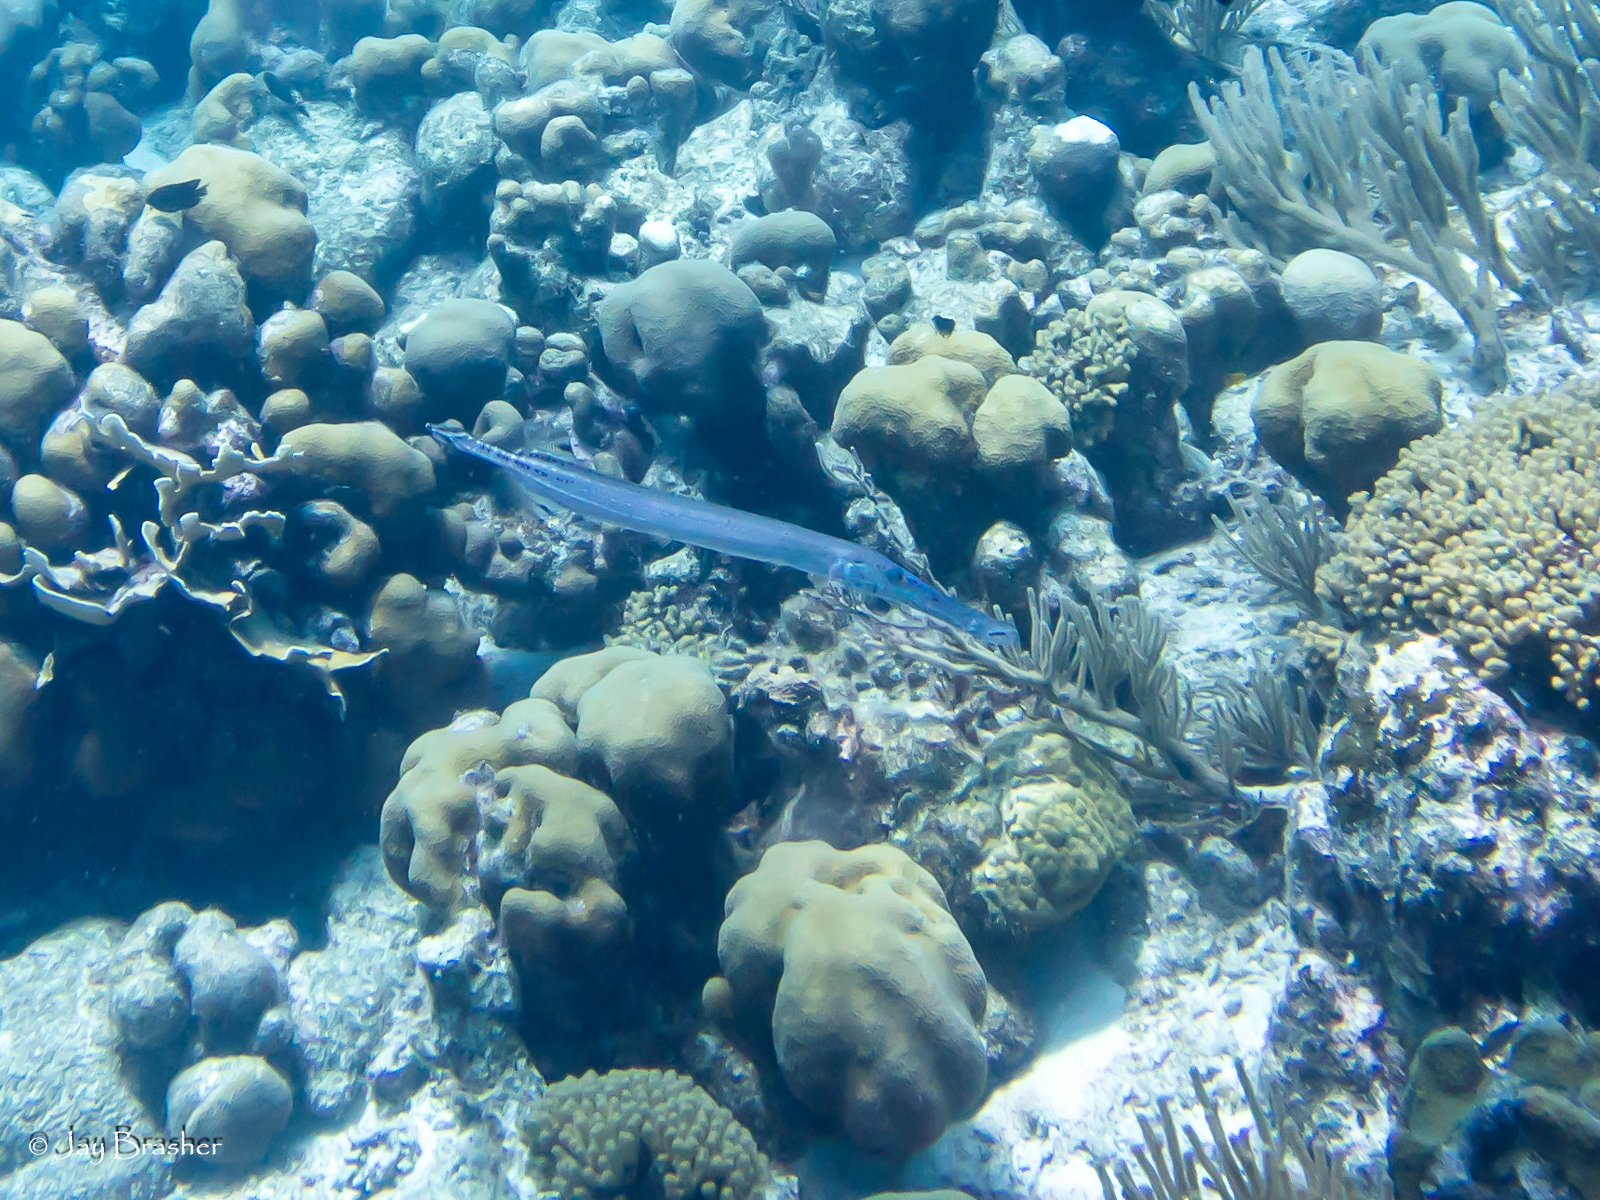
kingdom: Animalia
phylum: Chordata
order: Syngnathiformes
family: Aulostomidae
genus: Aulostomus
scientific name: Aulostomus maculatus
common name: West atlantic trumpetfish
